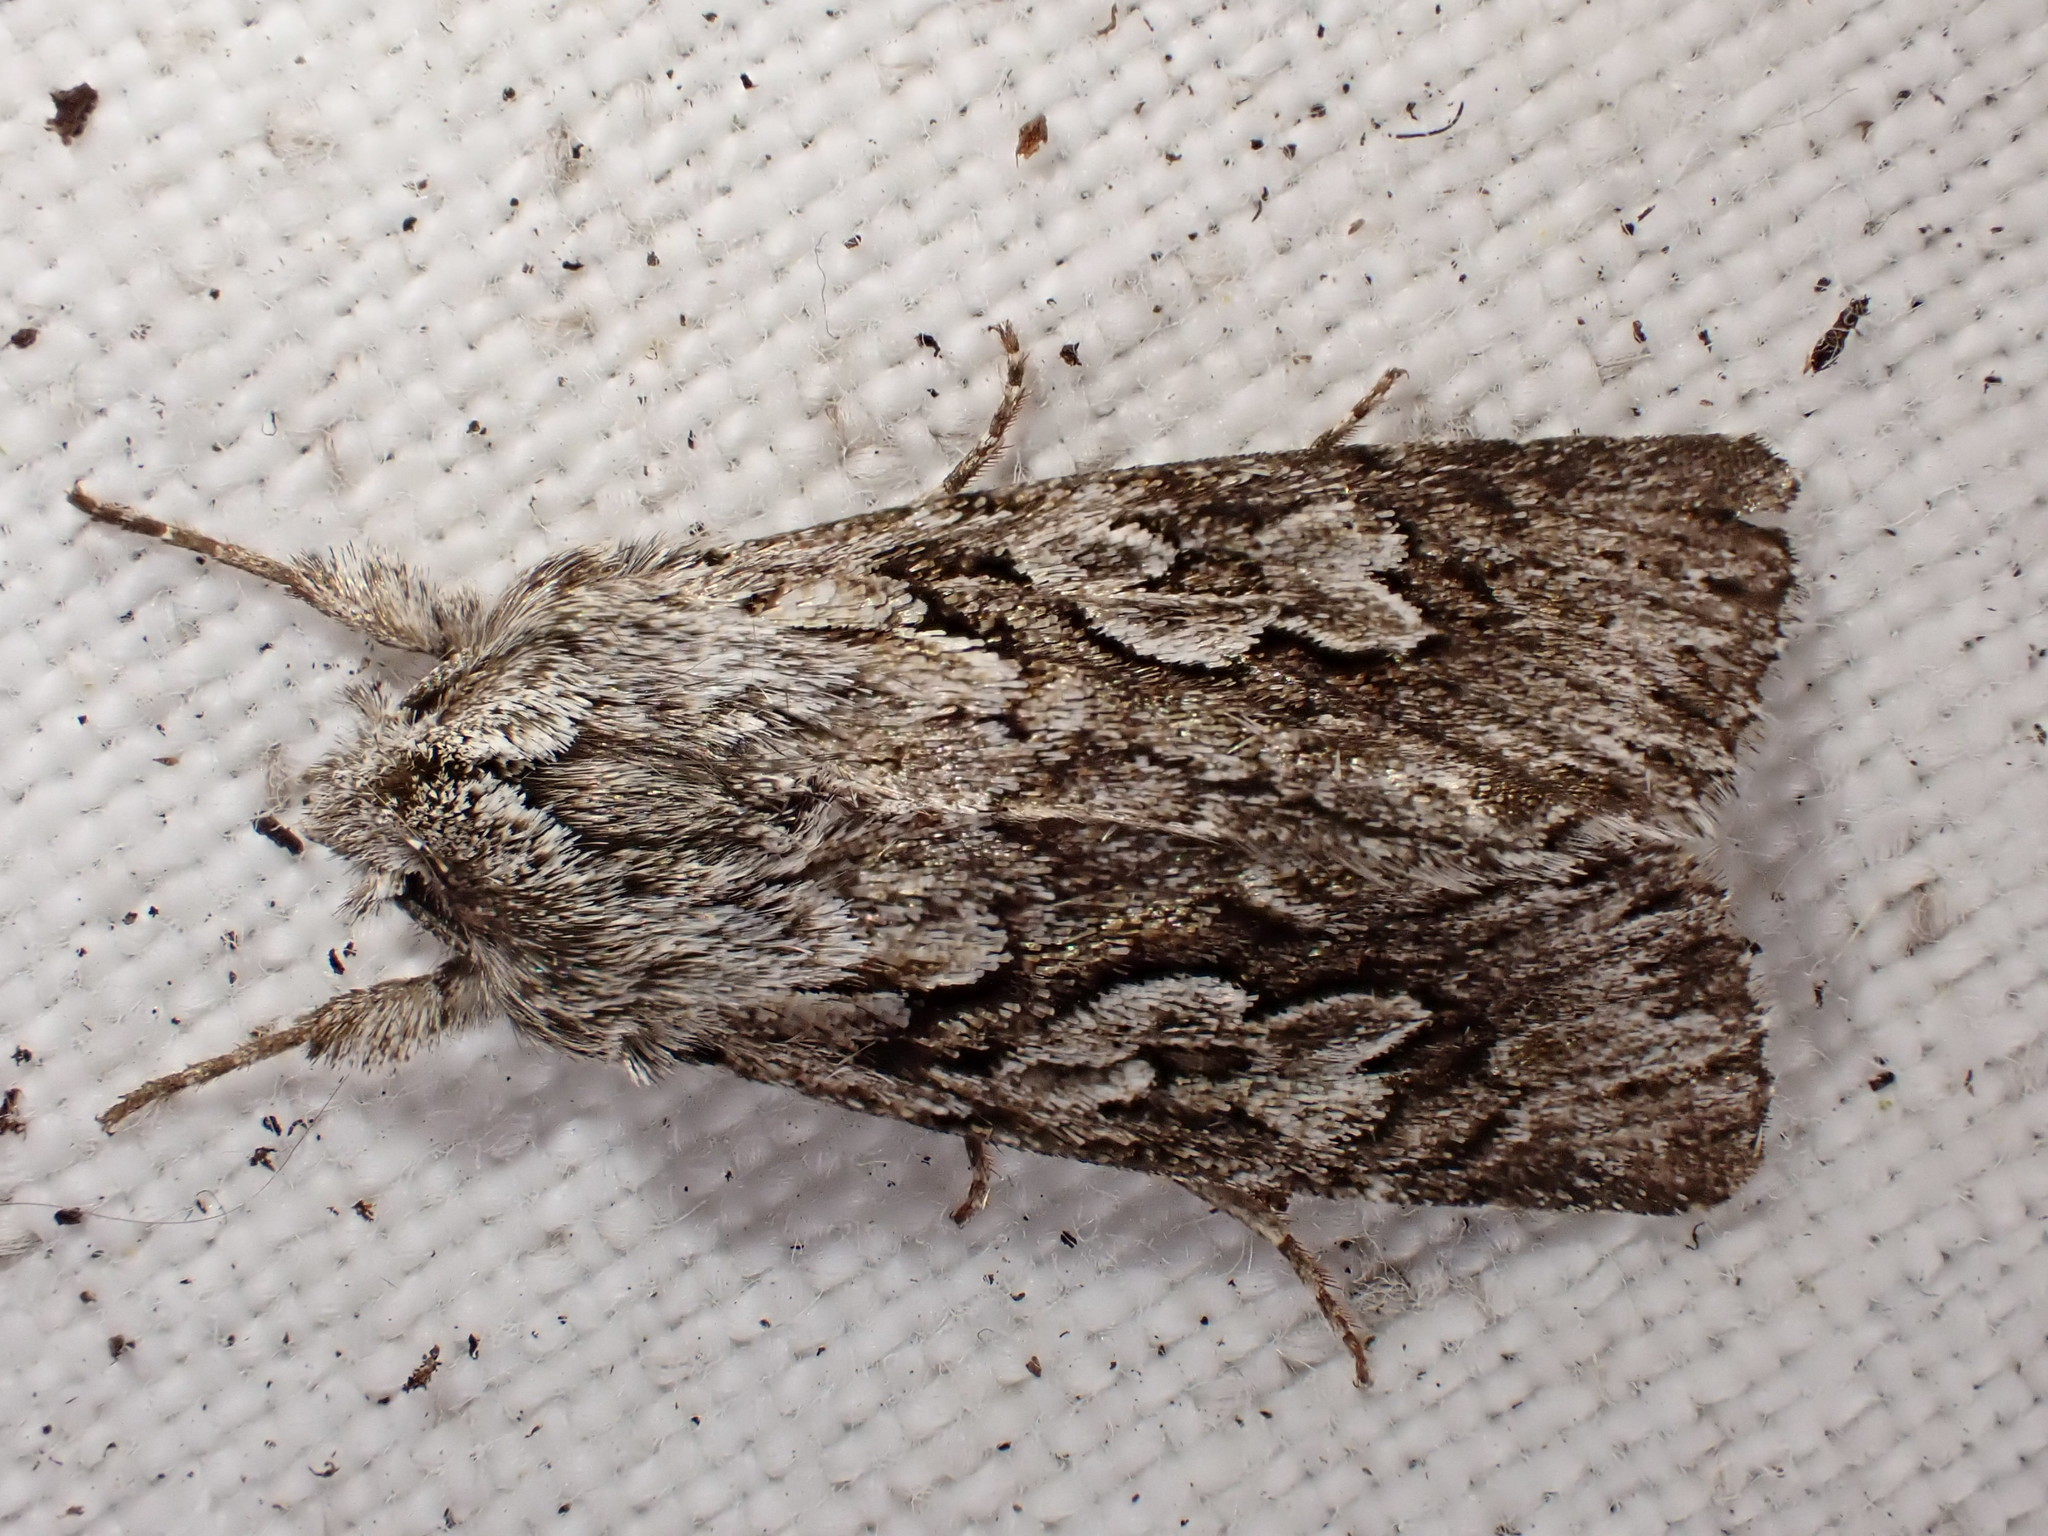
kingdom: Animalia
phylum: Arthropoda
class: Insecta
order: Lepidoptera
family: Noctuidae
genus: Xylocampa
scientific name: Xylocampa areola
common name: Early grey
